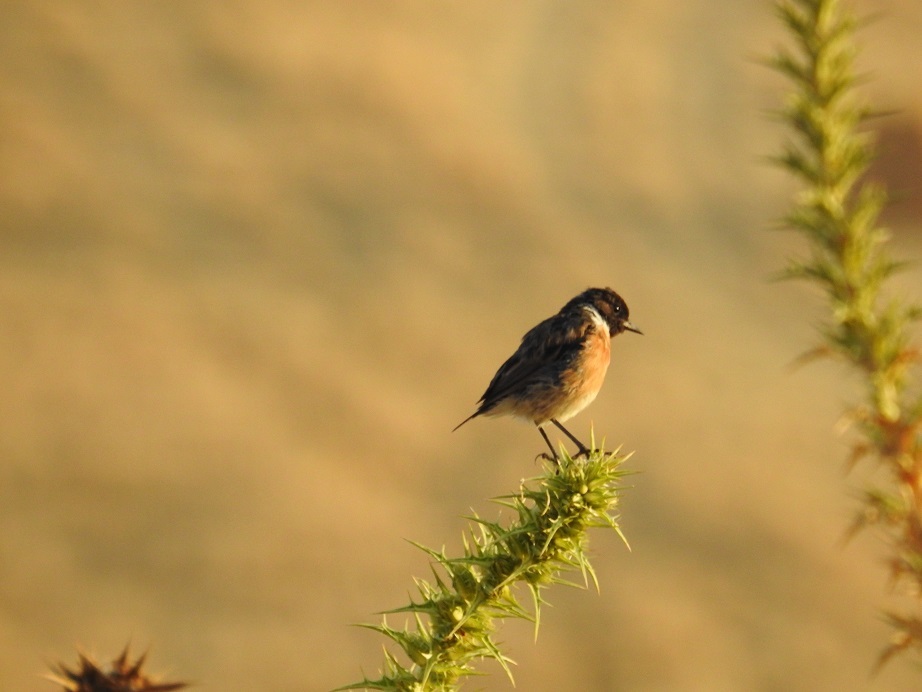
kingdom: Animalia
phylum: Chordata
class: Aves
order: Passeriformes
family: Muscicapidae
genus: Saxicola
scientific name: Saxicola rubicola
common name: European stonechat
